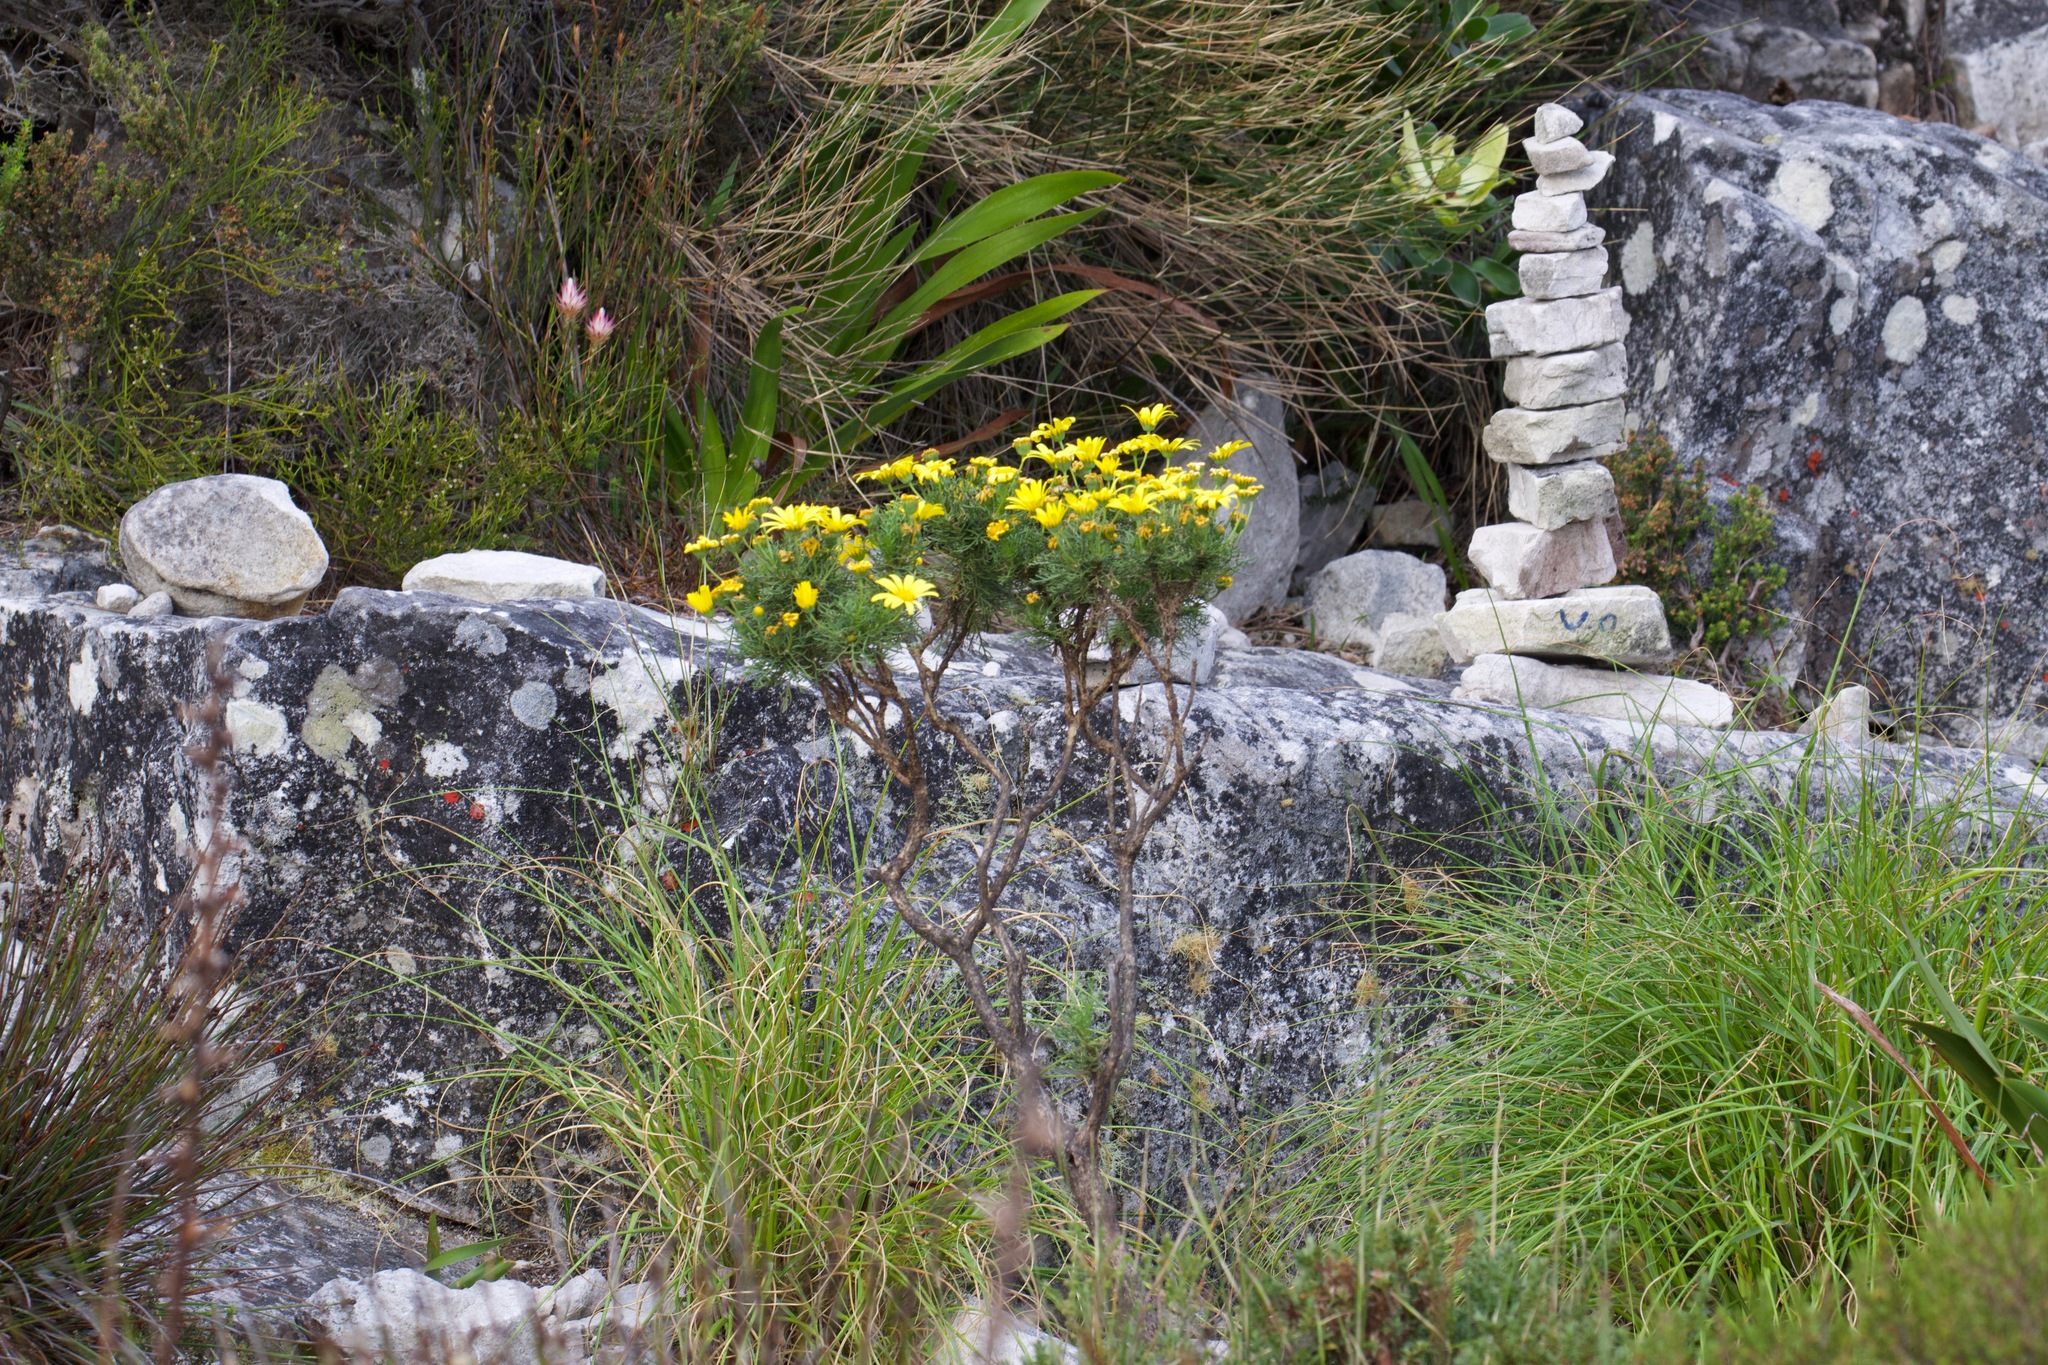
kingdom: Plantae
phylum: Tracheophyta
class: Magnoliopsida
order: Asterales
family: Asteraceae
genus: Euryops
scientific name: Euryops abrotanifolius
